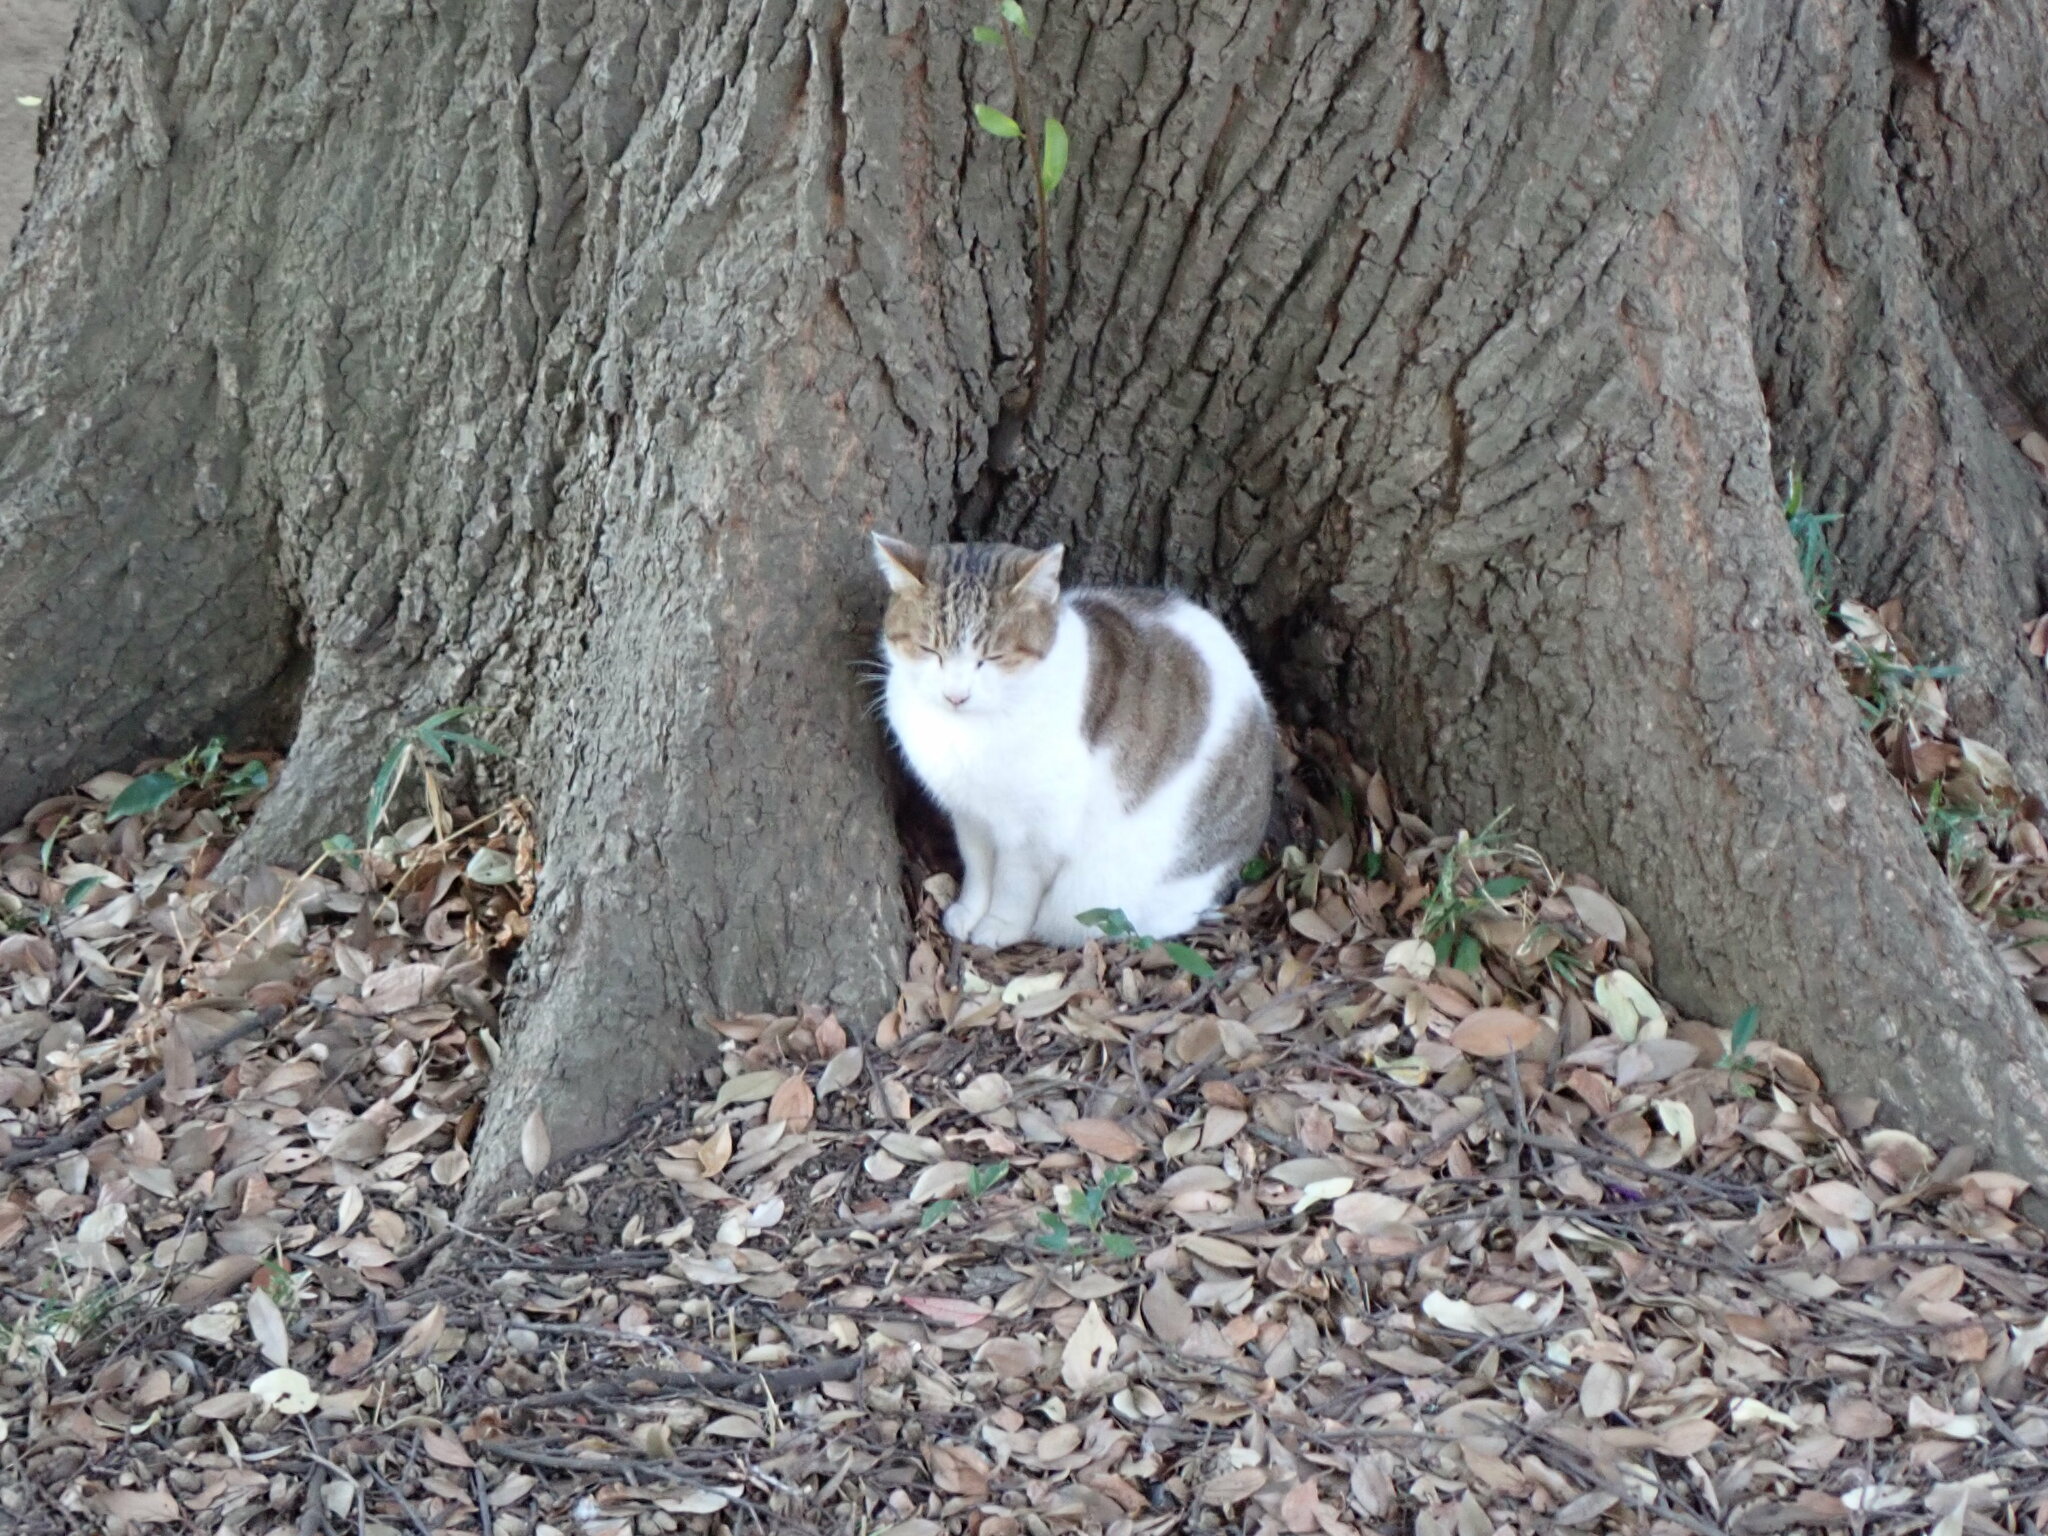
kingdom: Animalia
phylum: Chordata
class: Mammalia
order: Carnivora
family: Felidae
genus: Felis
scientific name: Felis catus
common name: Domestic cat
